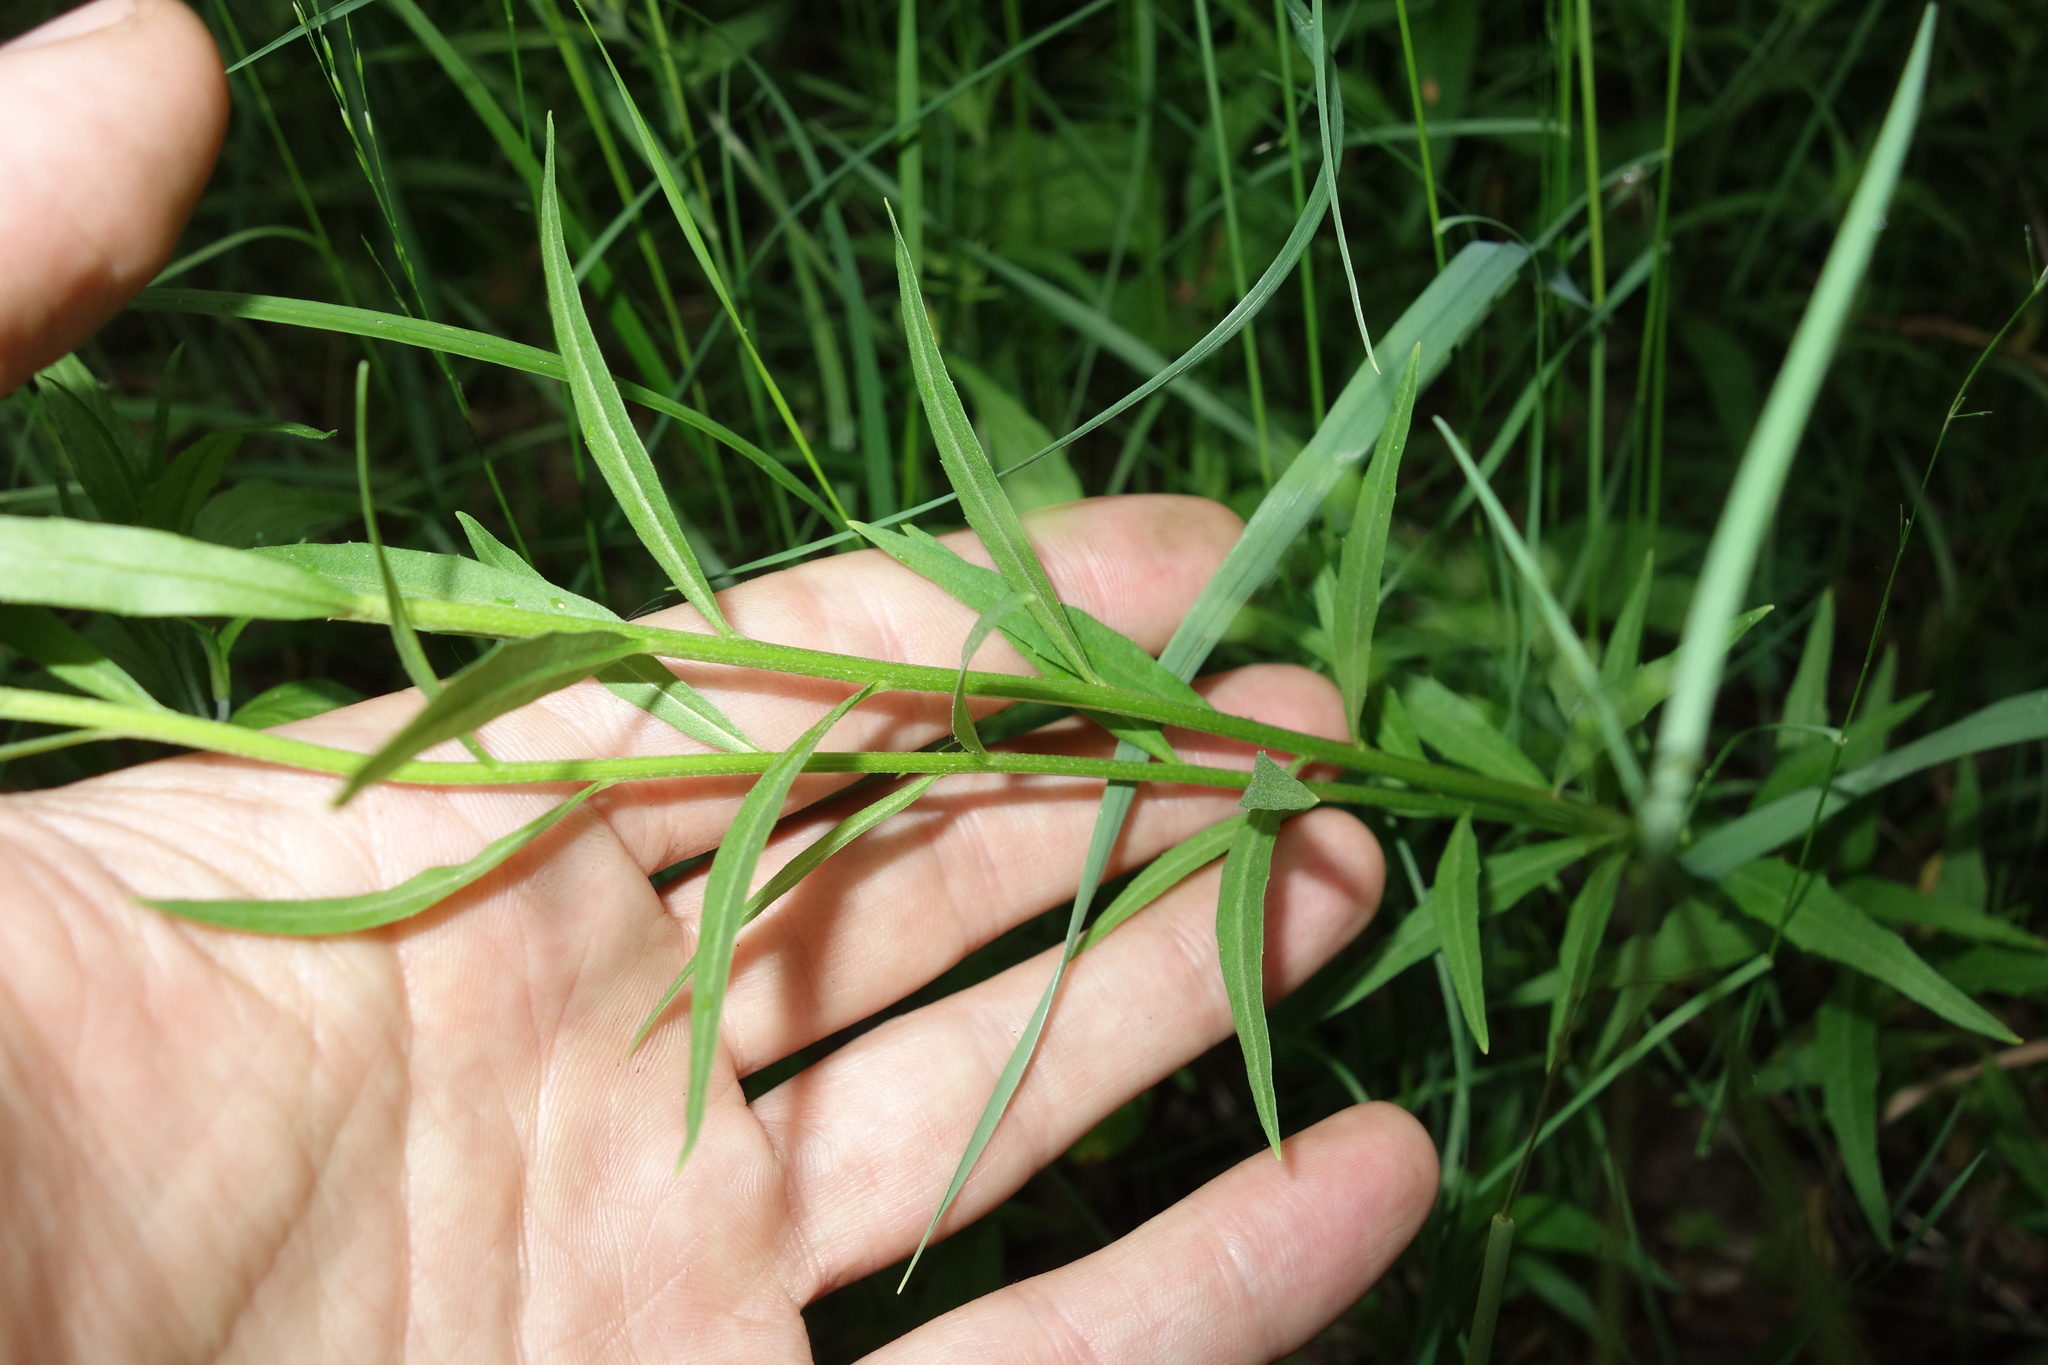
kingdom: Plantae
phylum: Tracheophyta
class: Magnoliopsida
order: Brassicales
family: Brassicaceae
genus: Erysimum
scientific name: Erysimum cheiranthoides
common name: Treacle mustard
